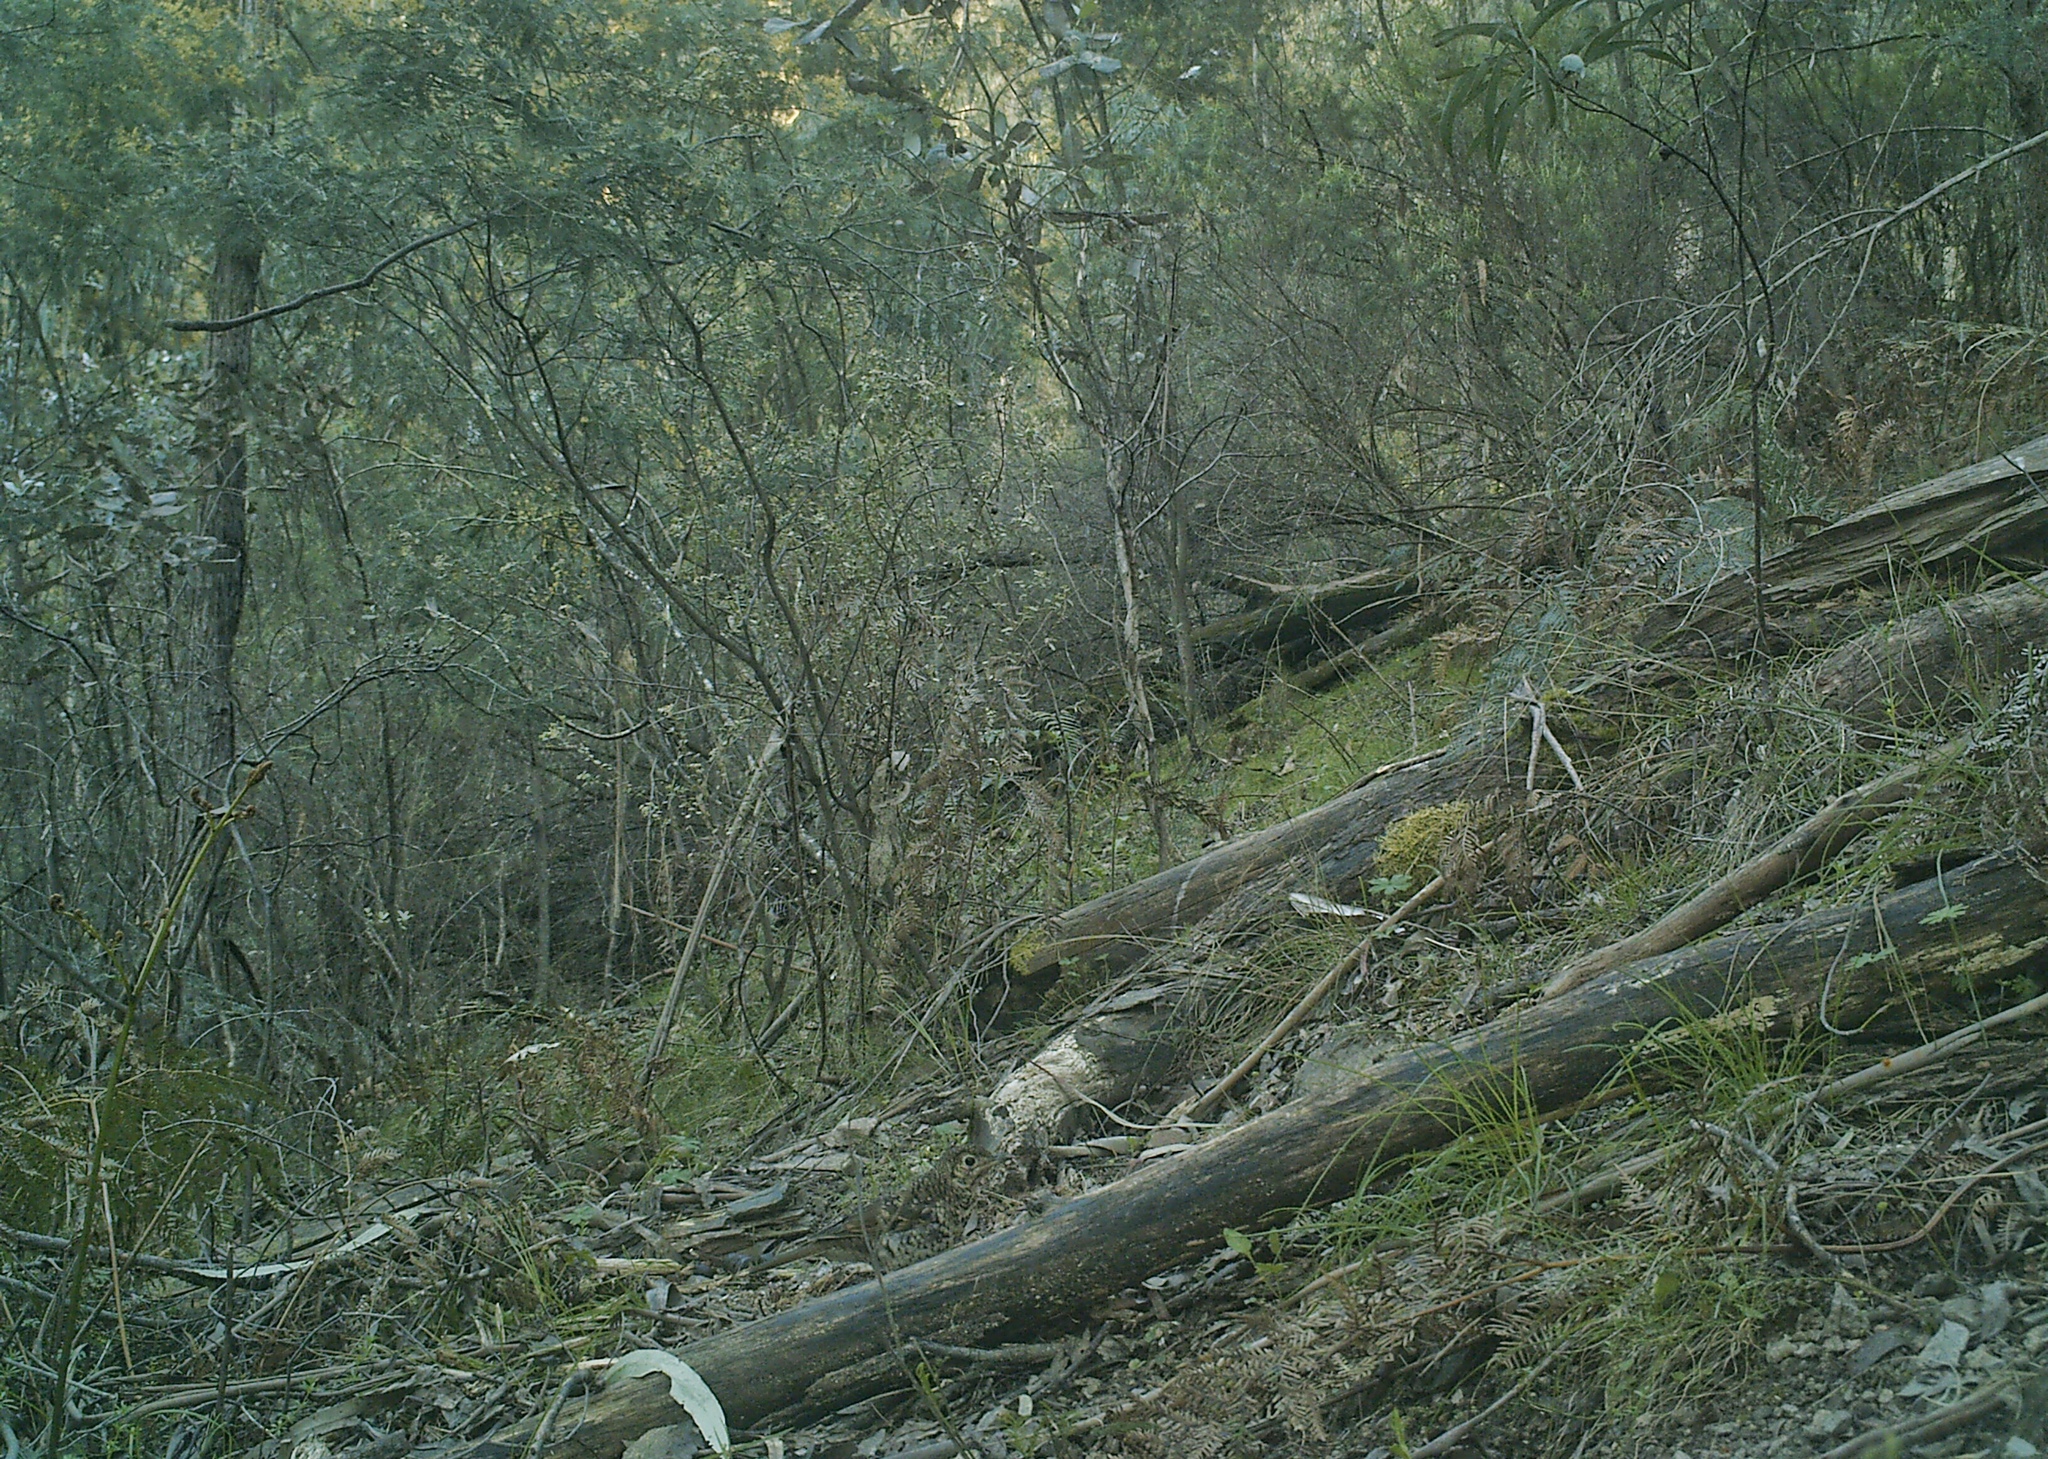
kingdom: Animalia
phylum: Chordata
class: Aves
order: Passeriformes
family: Turdidae
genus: Zoothera
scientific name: Zoothera lunulata
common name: Bassian thrush
